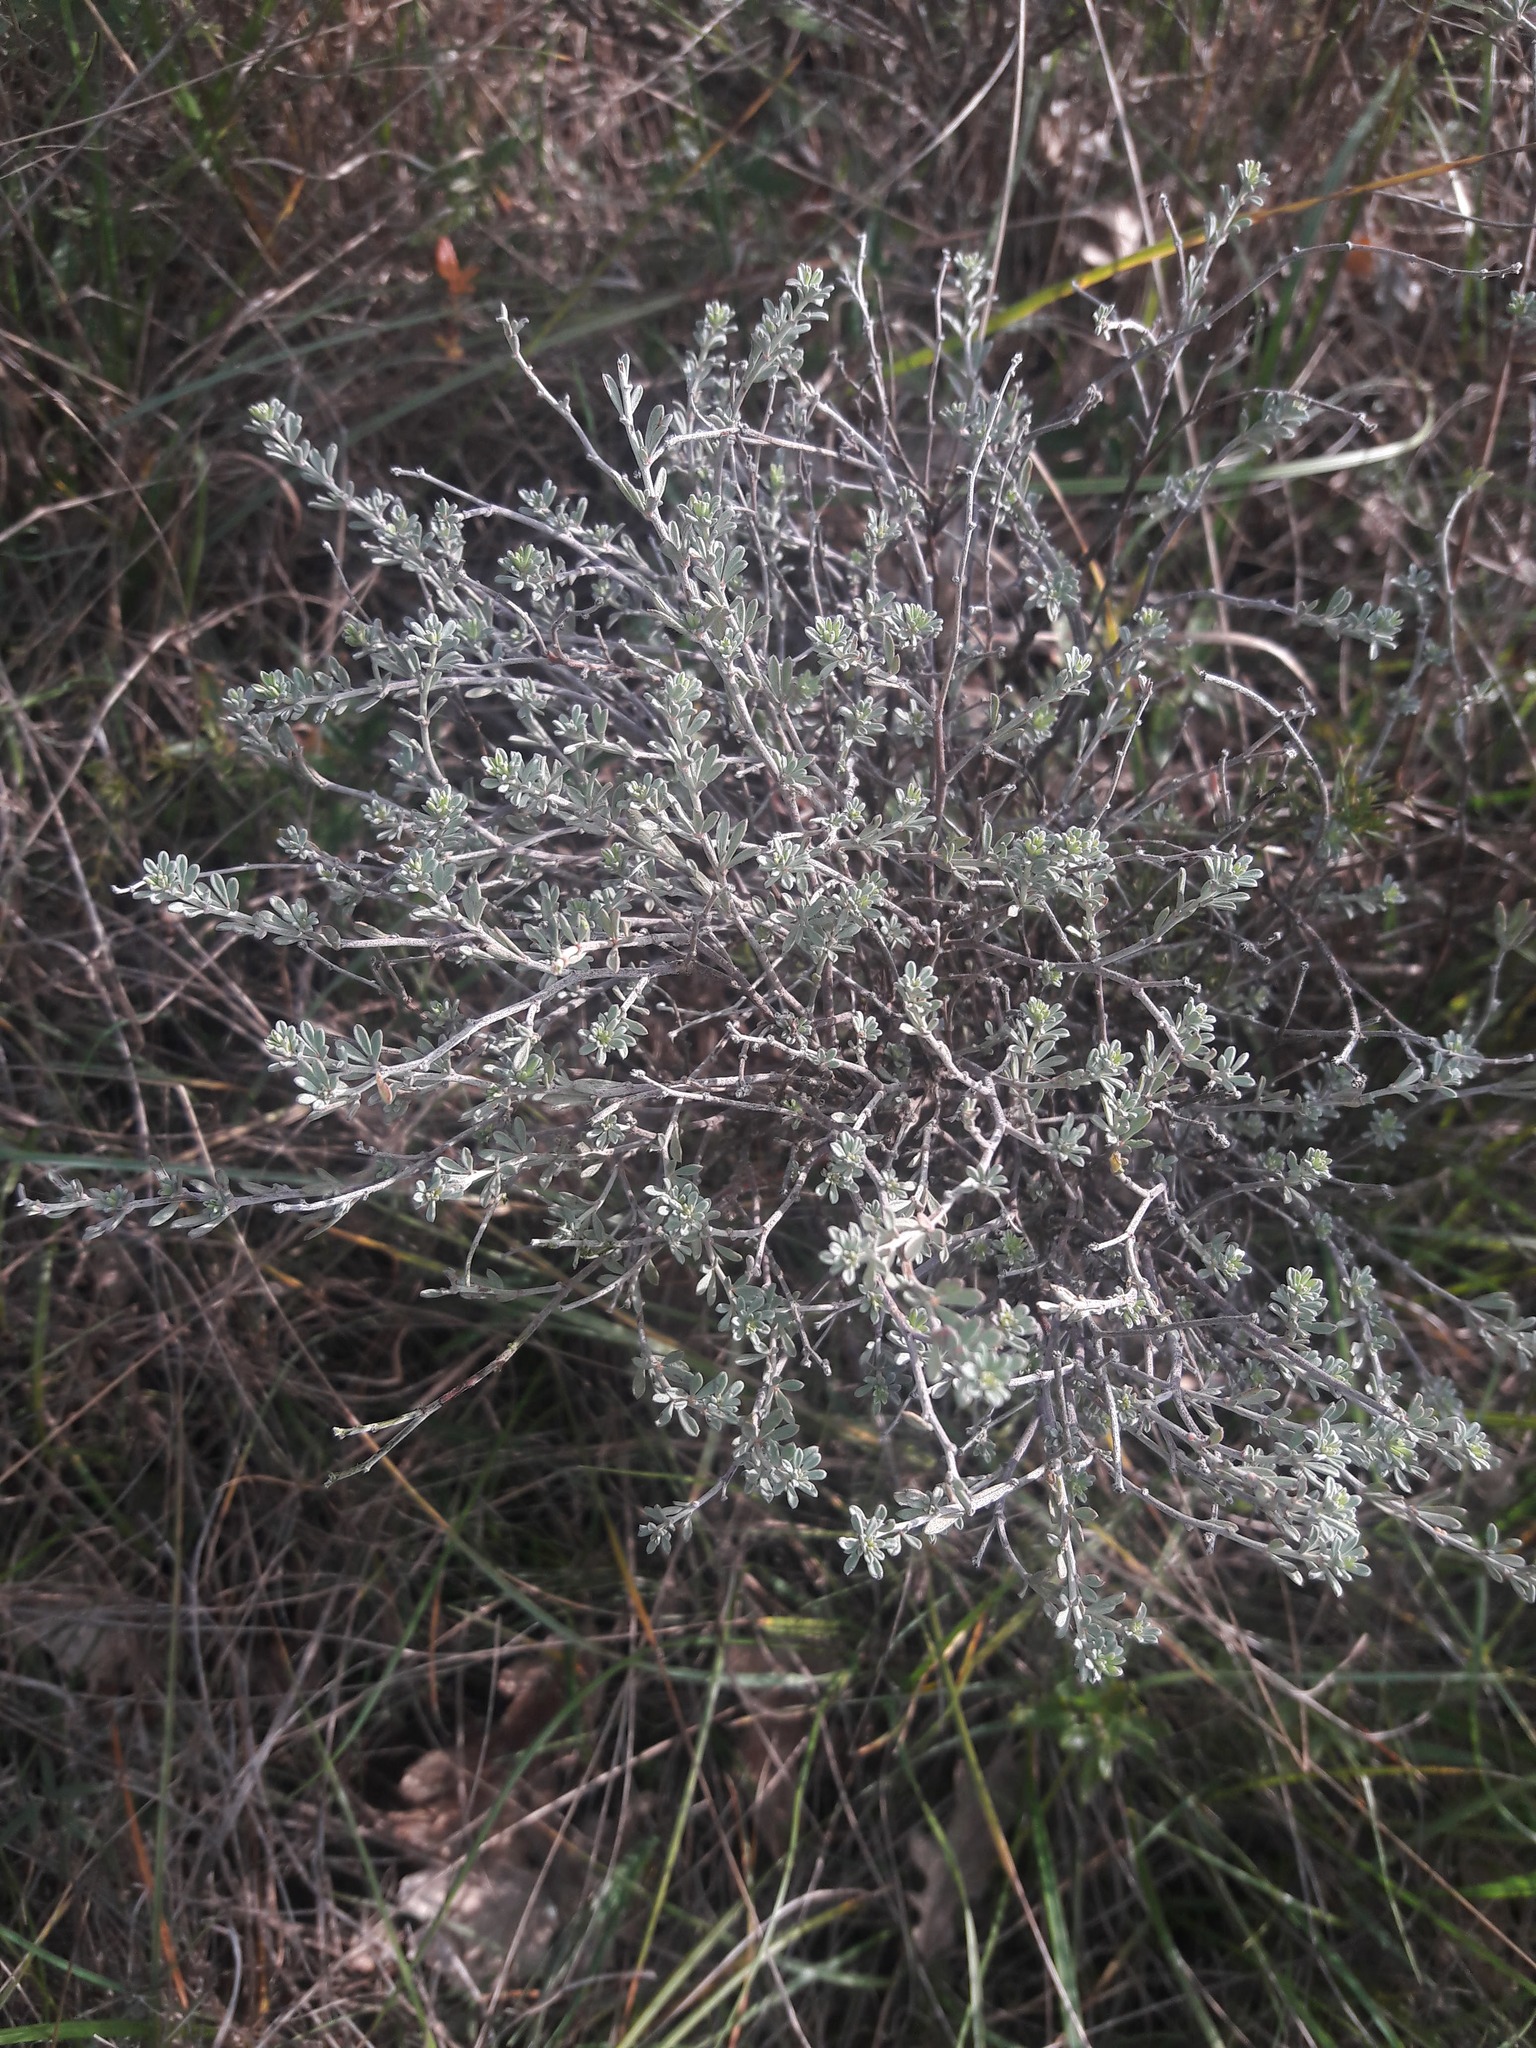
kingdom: Plantae
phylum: Tracheophyta
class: Magnoliopsida
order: Fabales
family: Fabaceae
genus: Lotus
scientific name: Lotus dorycnium
